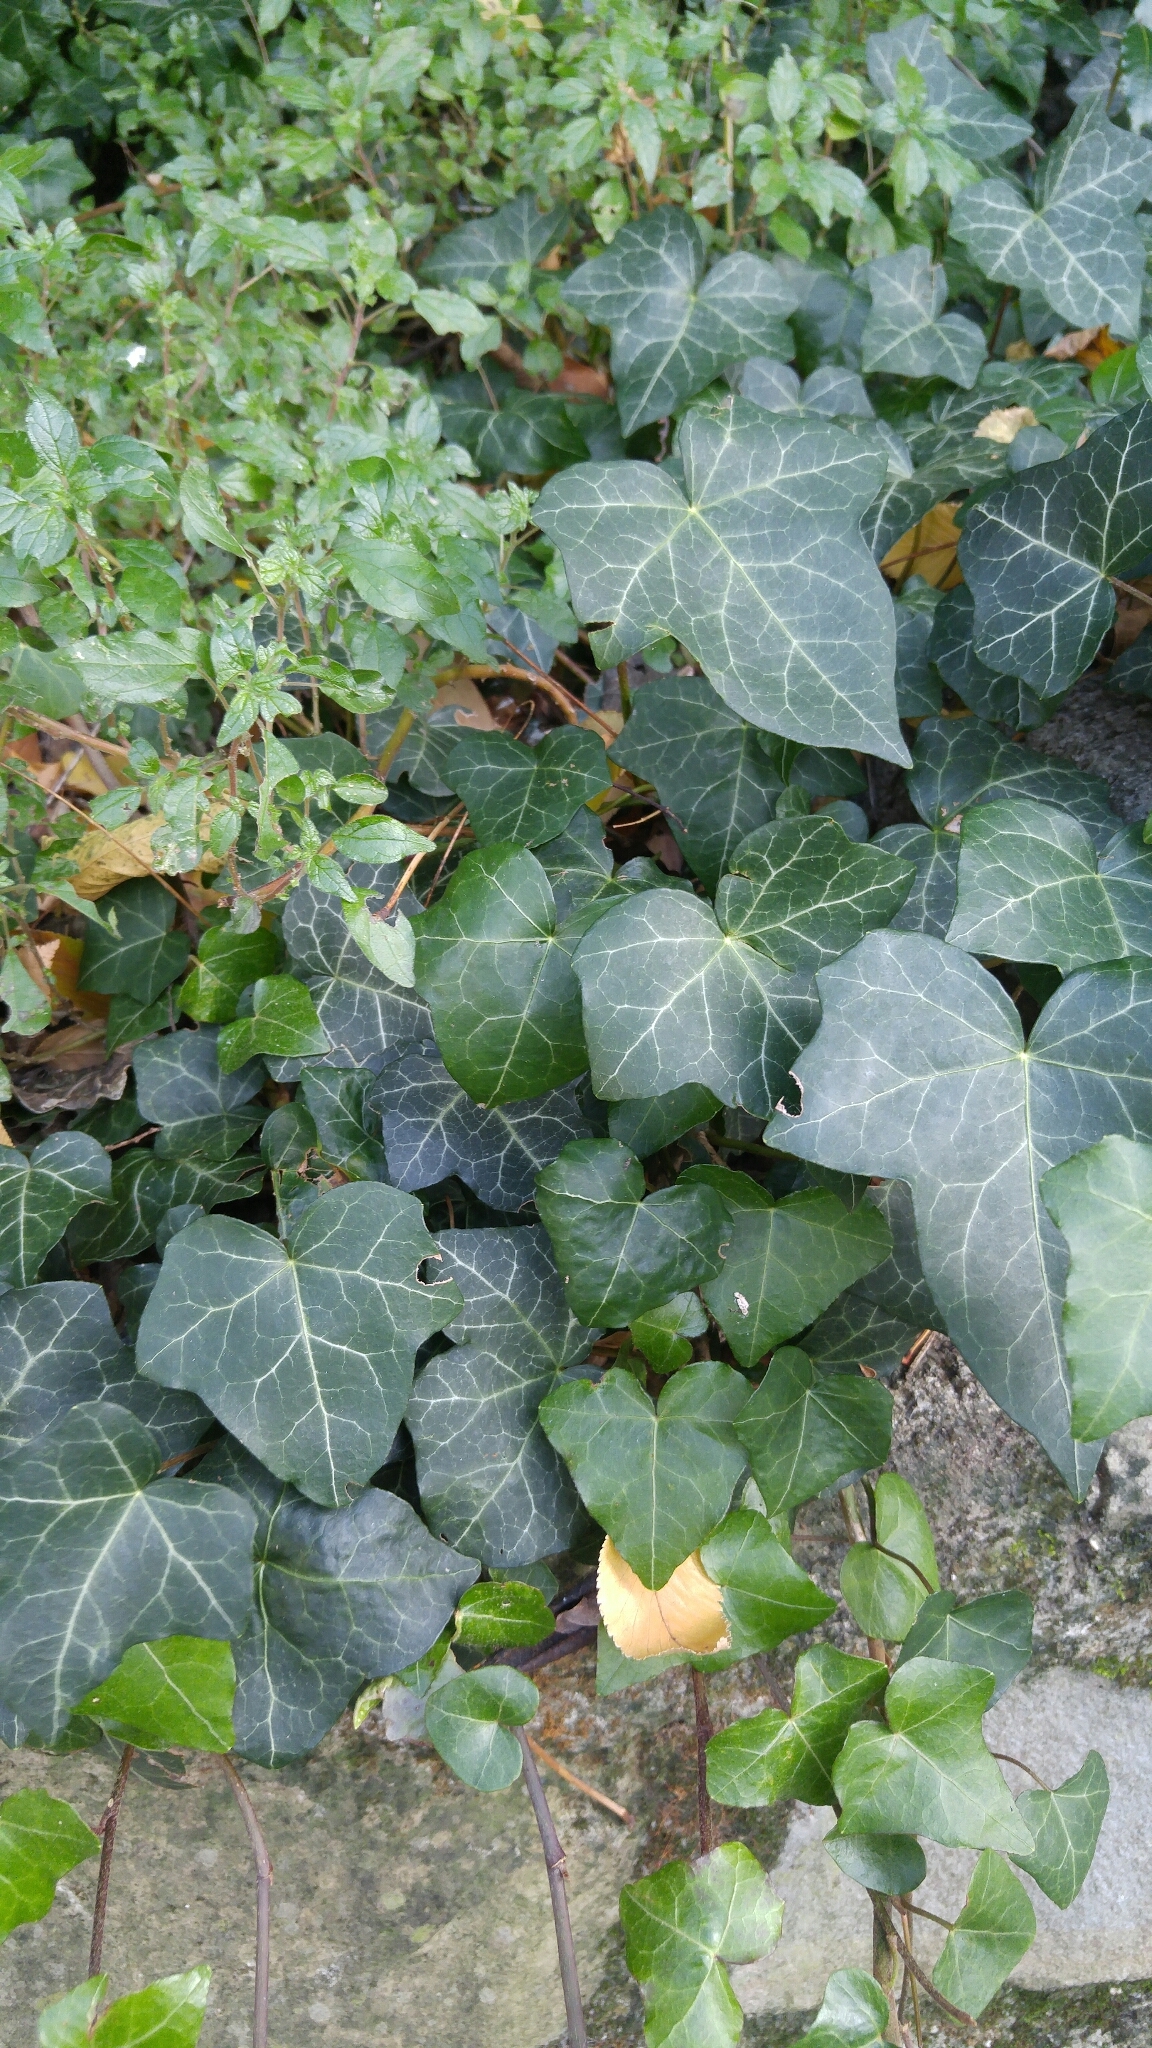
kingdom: Plantae
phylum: Tracheophyta
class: Magnoliopsida
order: Apiales
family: Araliaceae
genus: Hedera
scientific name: Hedera helix
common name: Ivy
